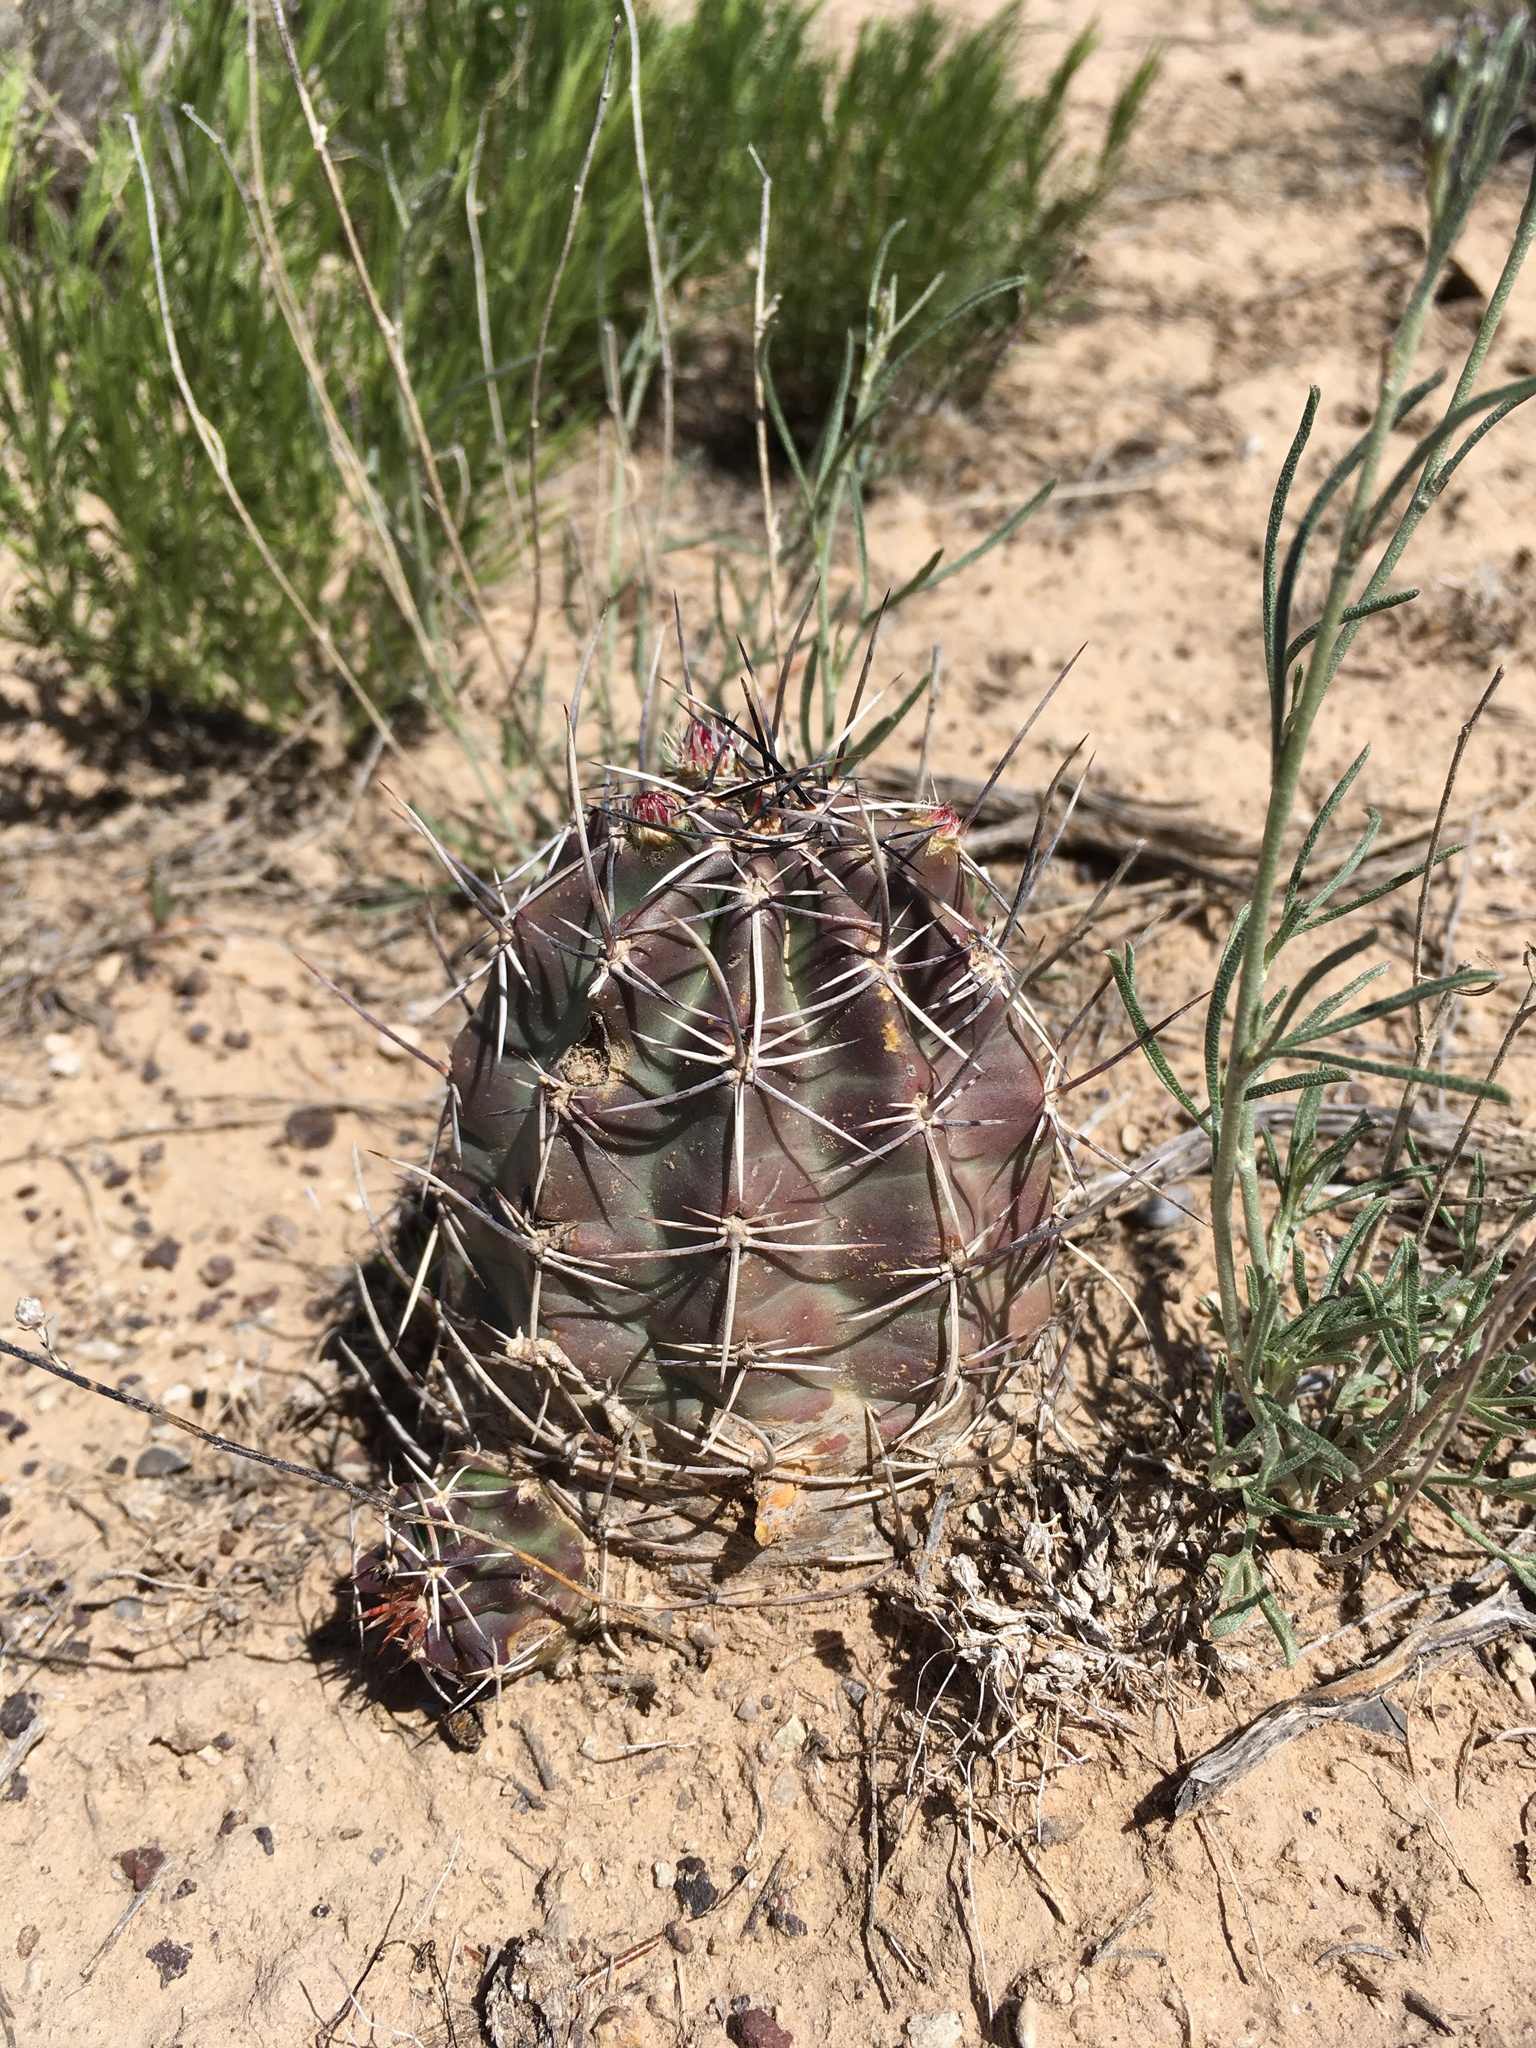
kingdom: Plantae
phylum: Tracheophyta
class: Magnoliopsida
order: Caryophyllales
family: Cactaceae
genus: Echinocereus
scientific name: Echinocereus fendleri
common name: Fendler's hedgehog cactus
